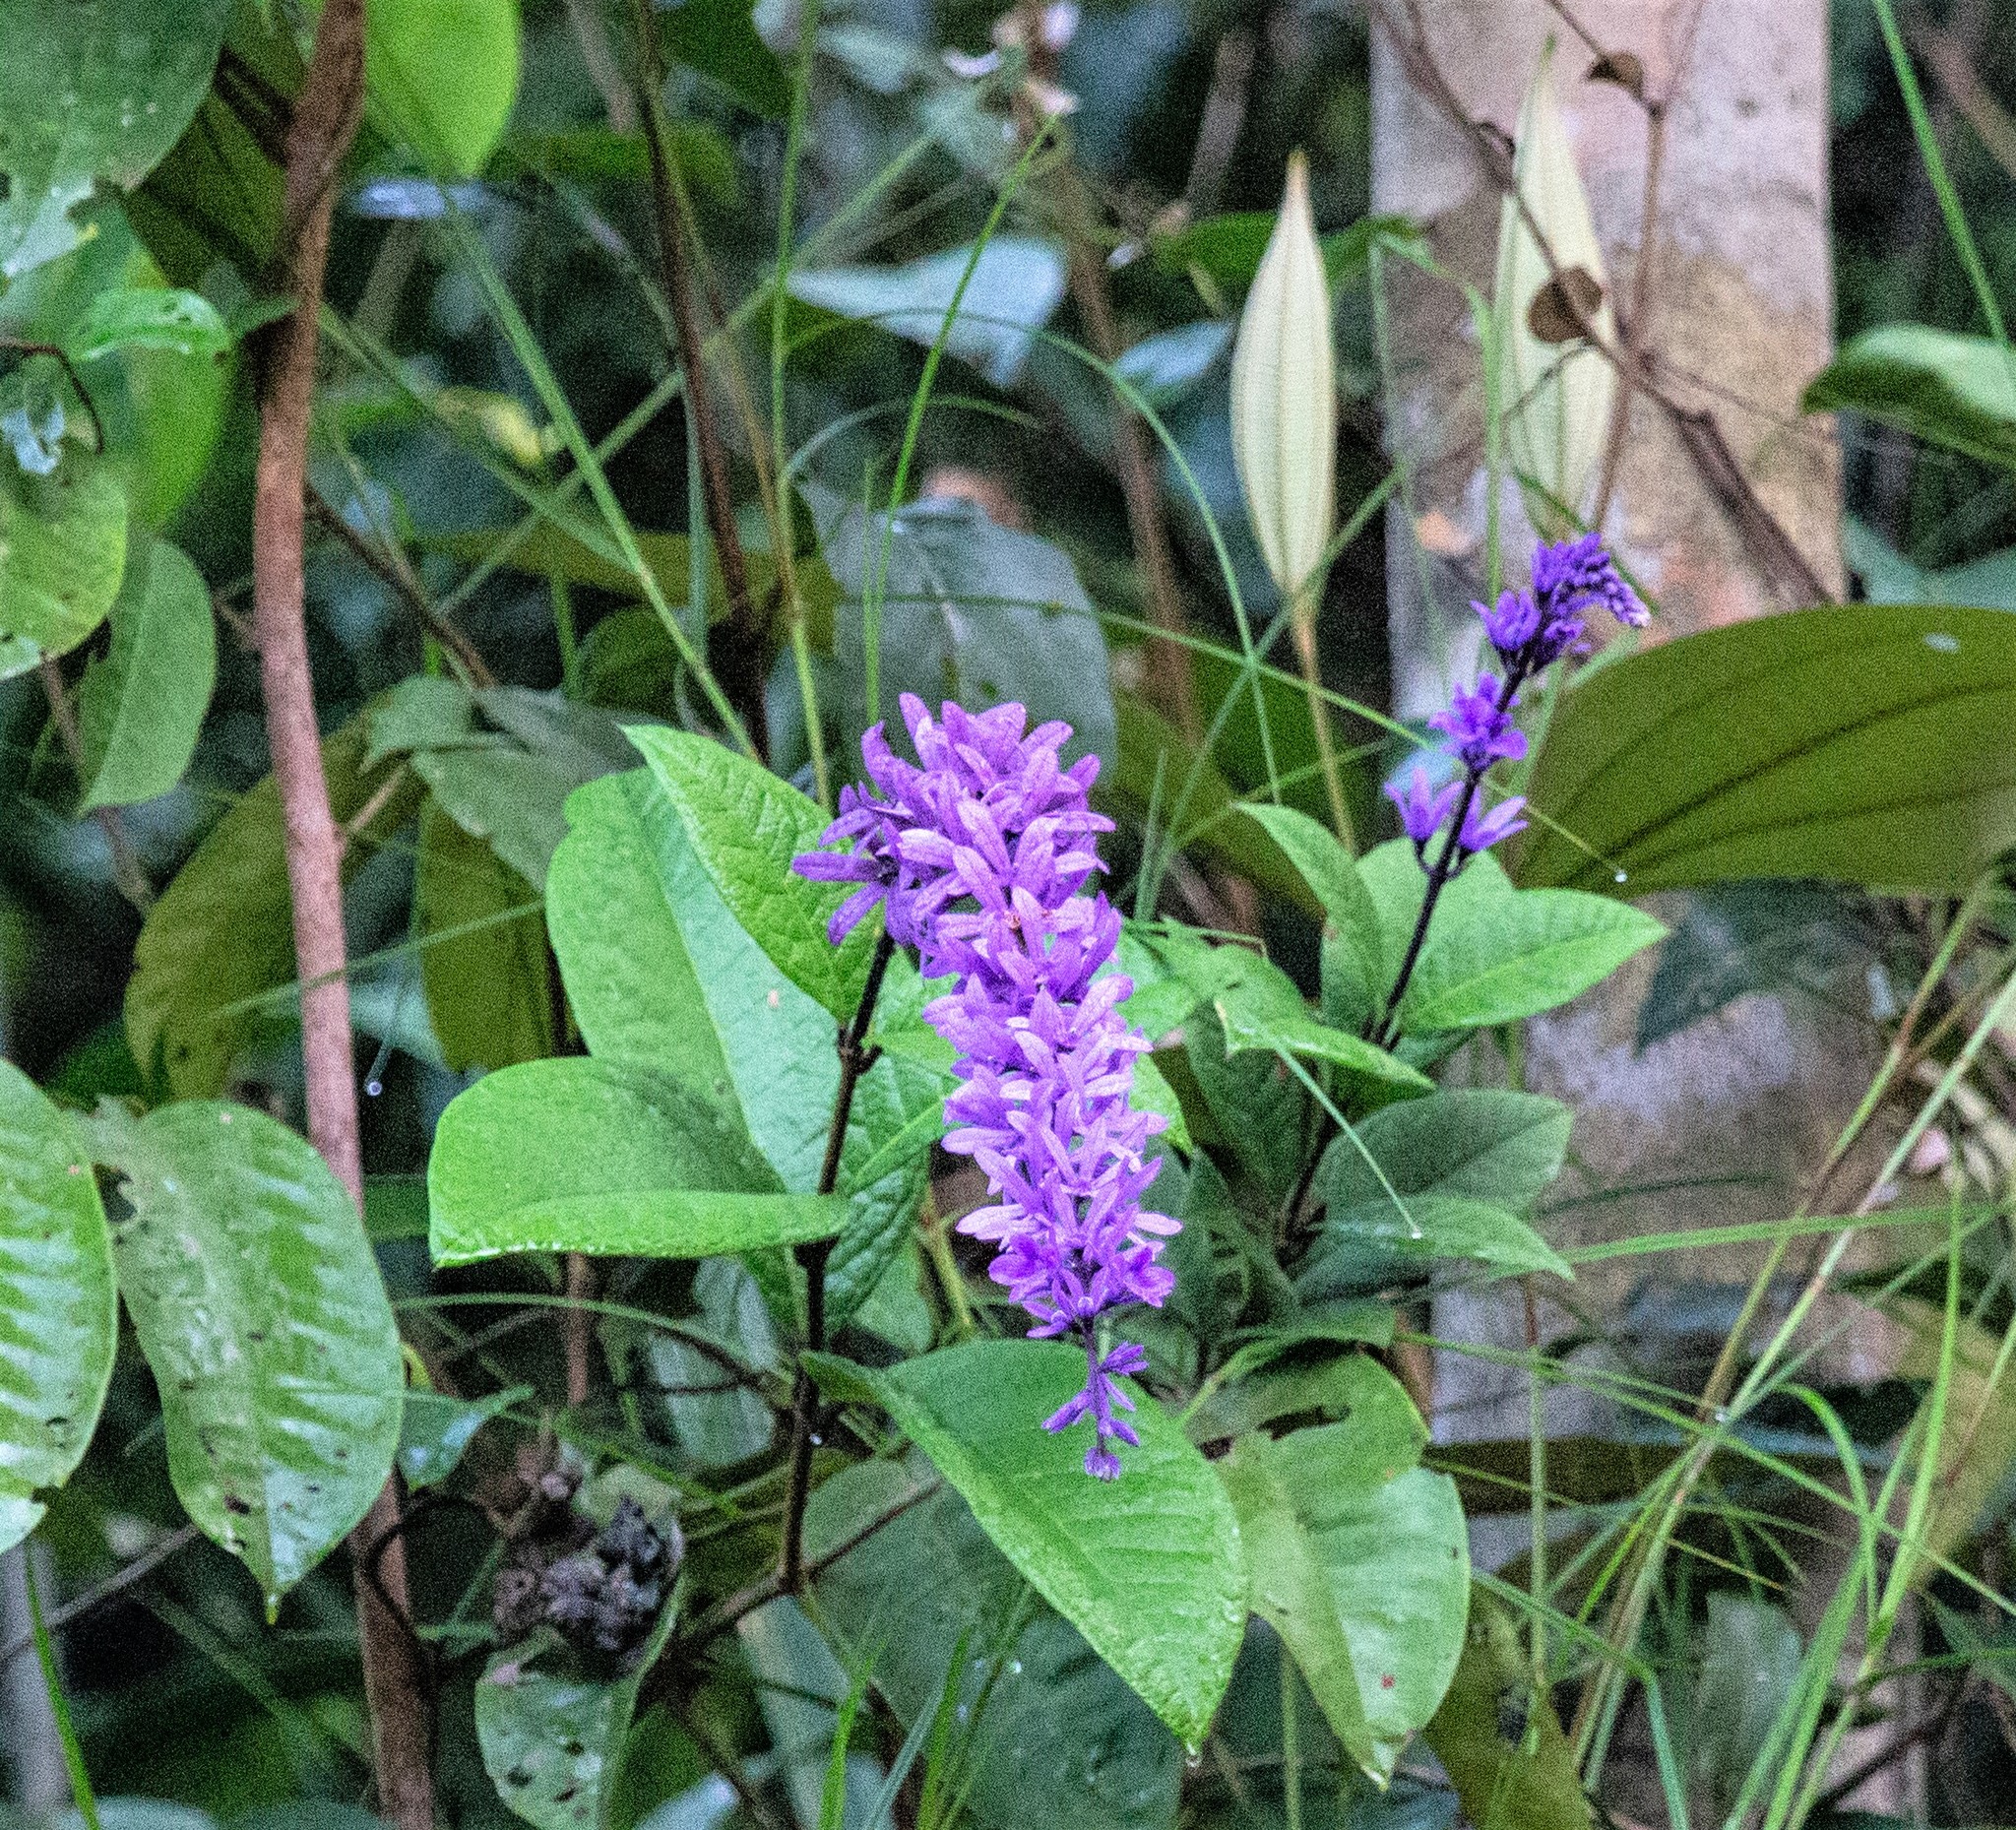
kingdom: Plantae
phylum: Tracheophyta
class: Magnoliopsida
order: Lamiales
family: Verbenaceae
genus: Petrea
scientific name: Petrea volubilis
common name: Queen's-wreath
